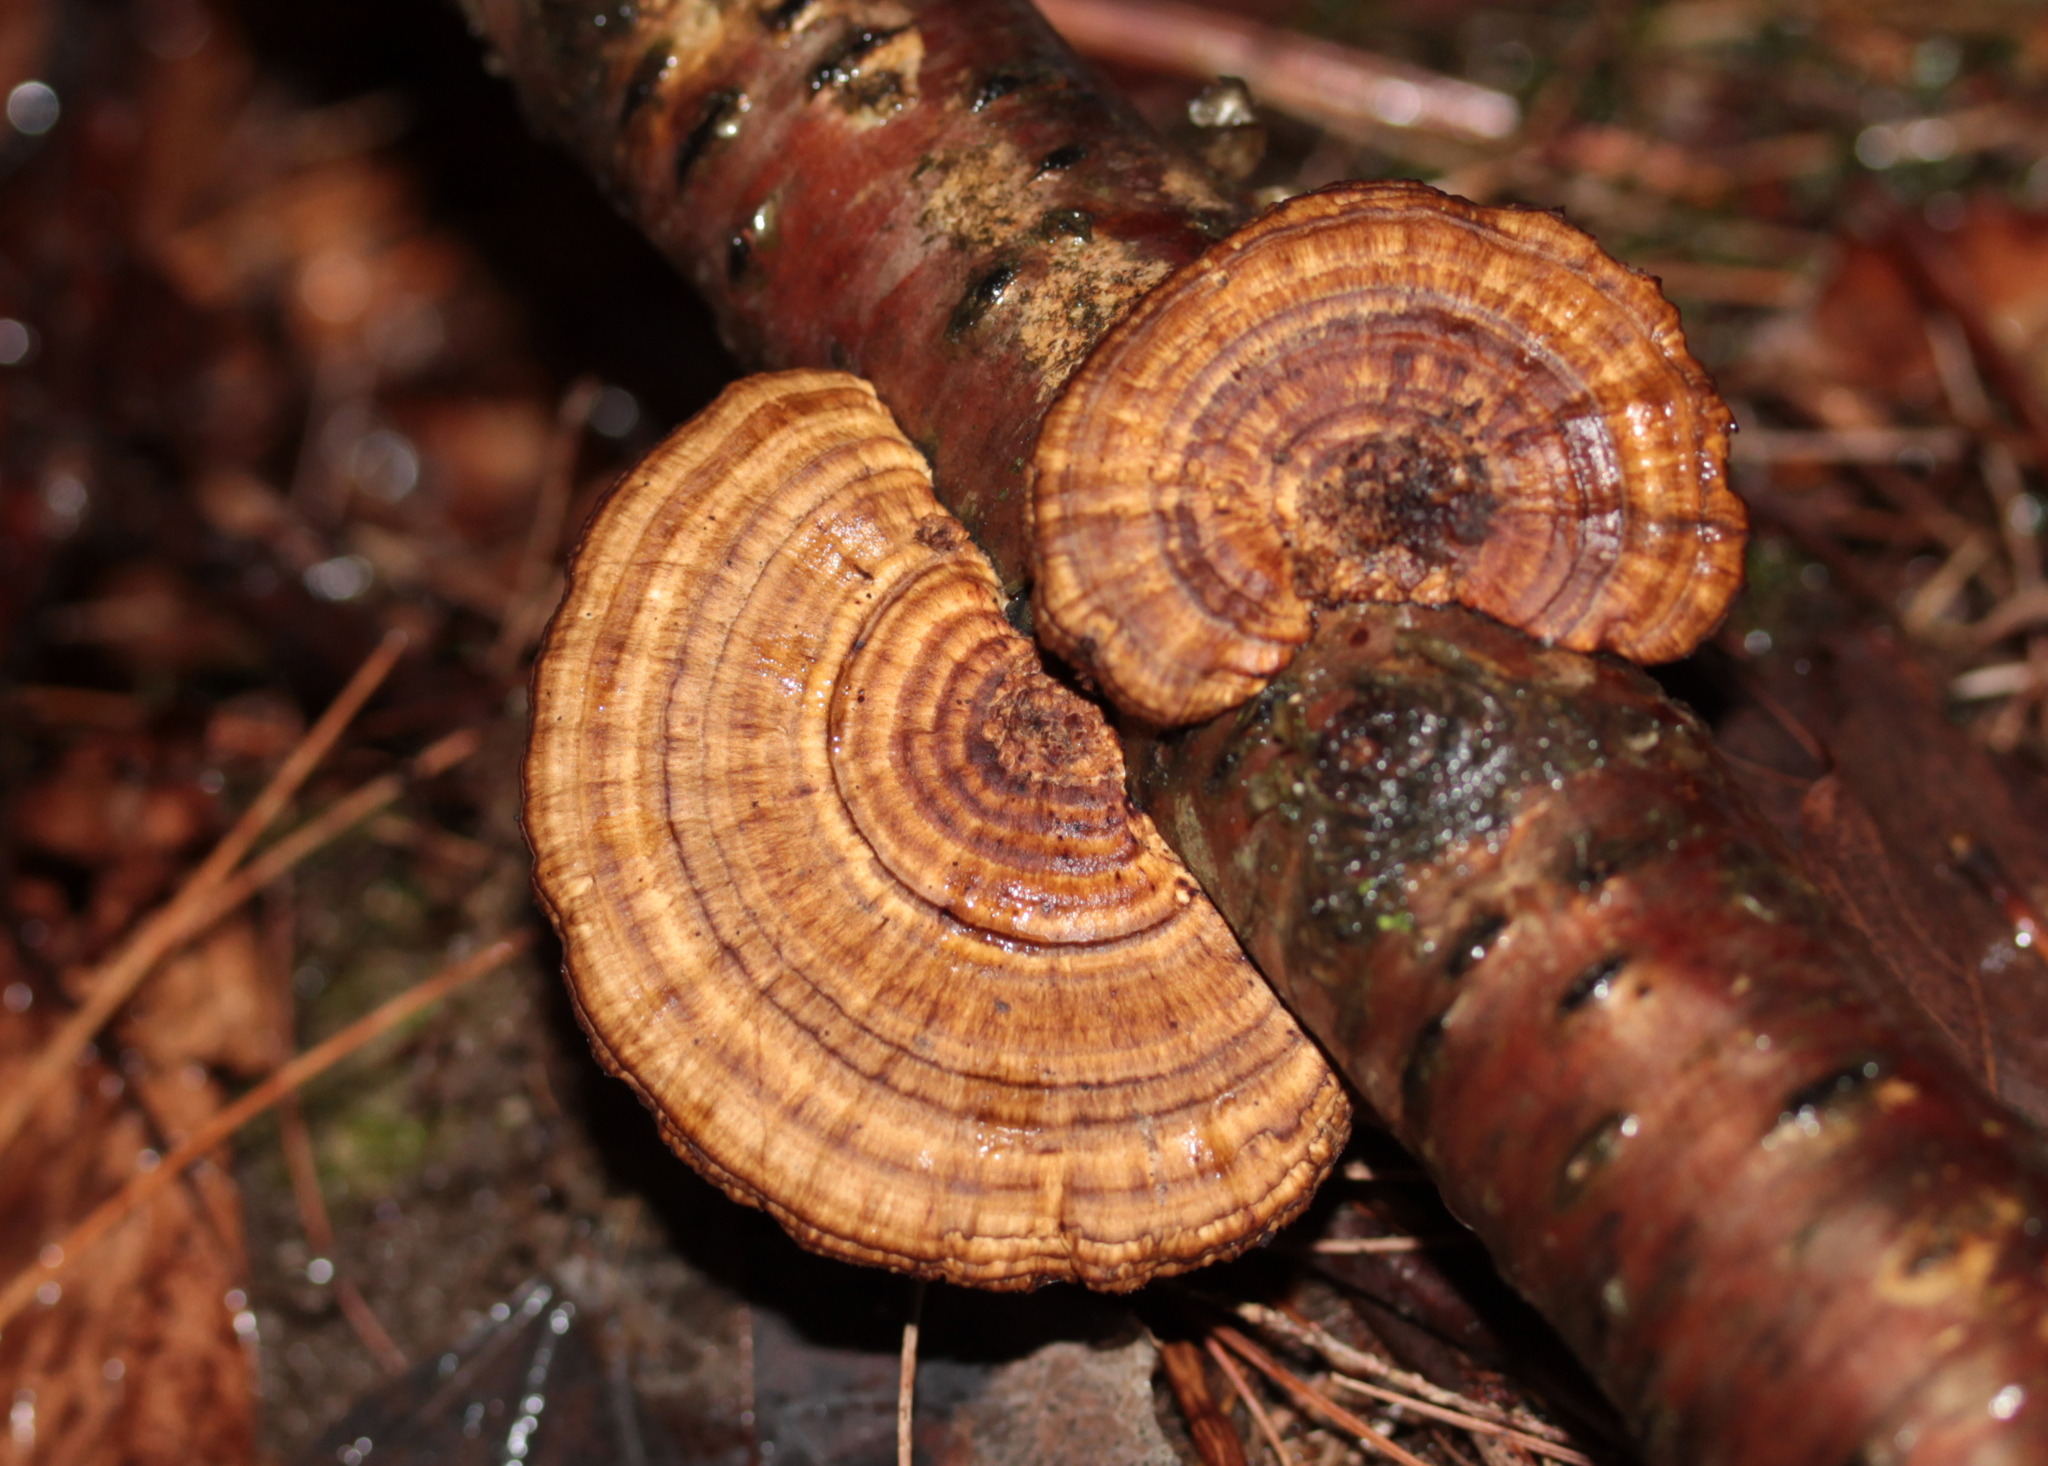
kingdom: Fungi
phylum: Basidiomycota
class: Agaricomycetes
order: Polyporales
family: Polyporaceae
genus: Daedaleopsis
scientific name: Daedaleopsis confragosa
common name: Blushing bracket
